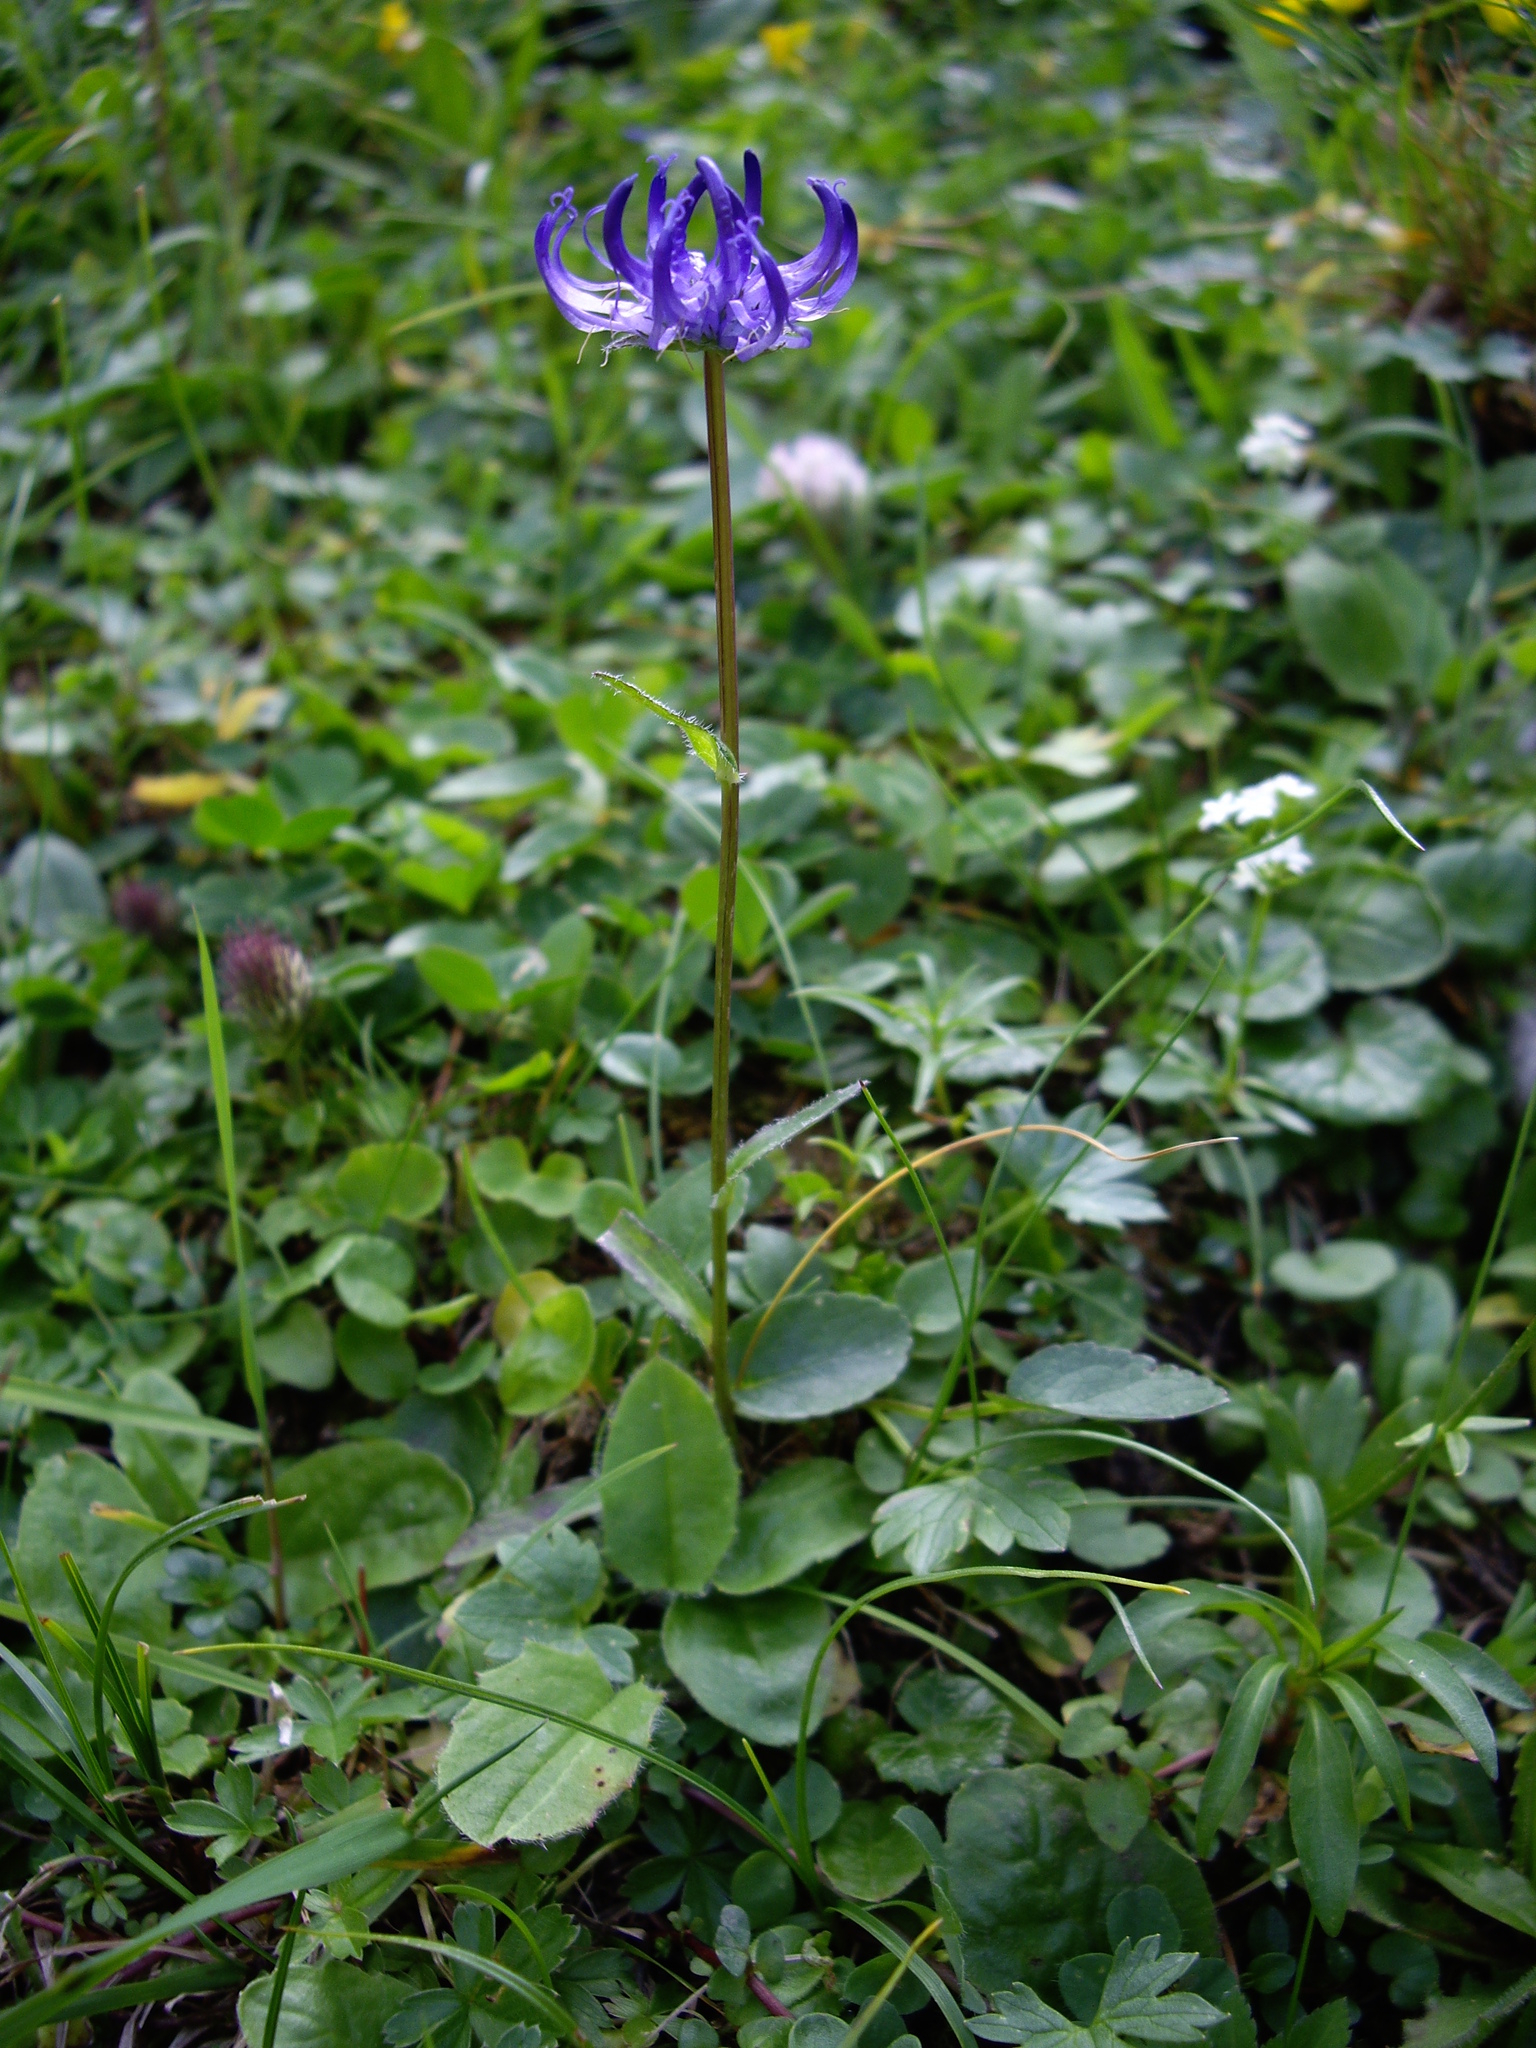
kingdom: Plantae
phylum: Tracheophyta
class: Magnoliopsida
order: Asterales
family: Campanulaceae
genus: Phyteuma
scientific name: Phyteuma orbiculare
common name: Round-headed rampion
